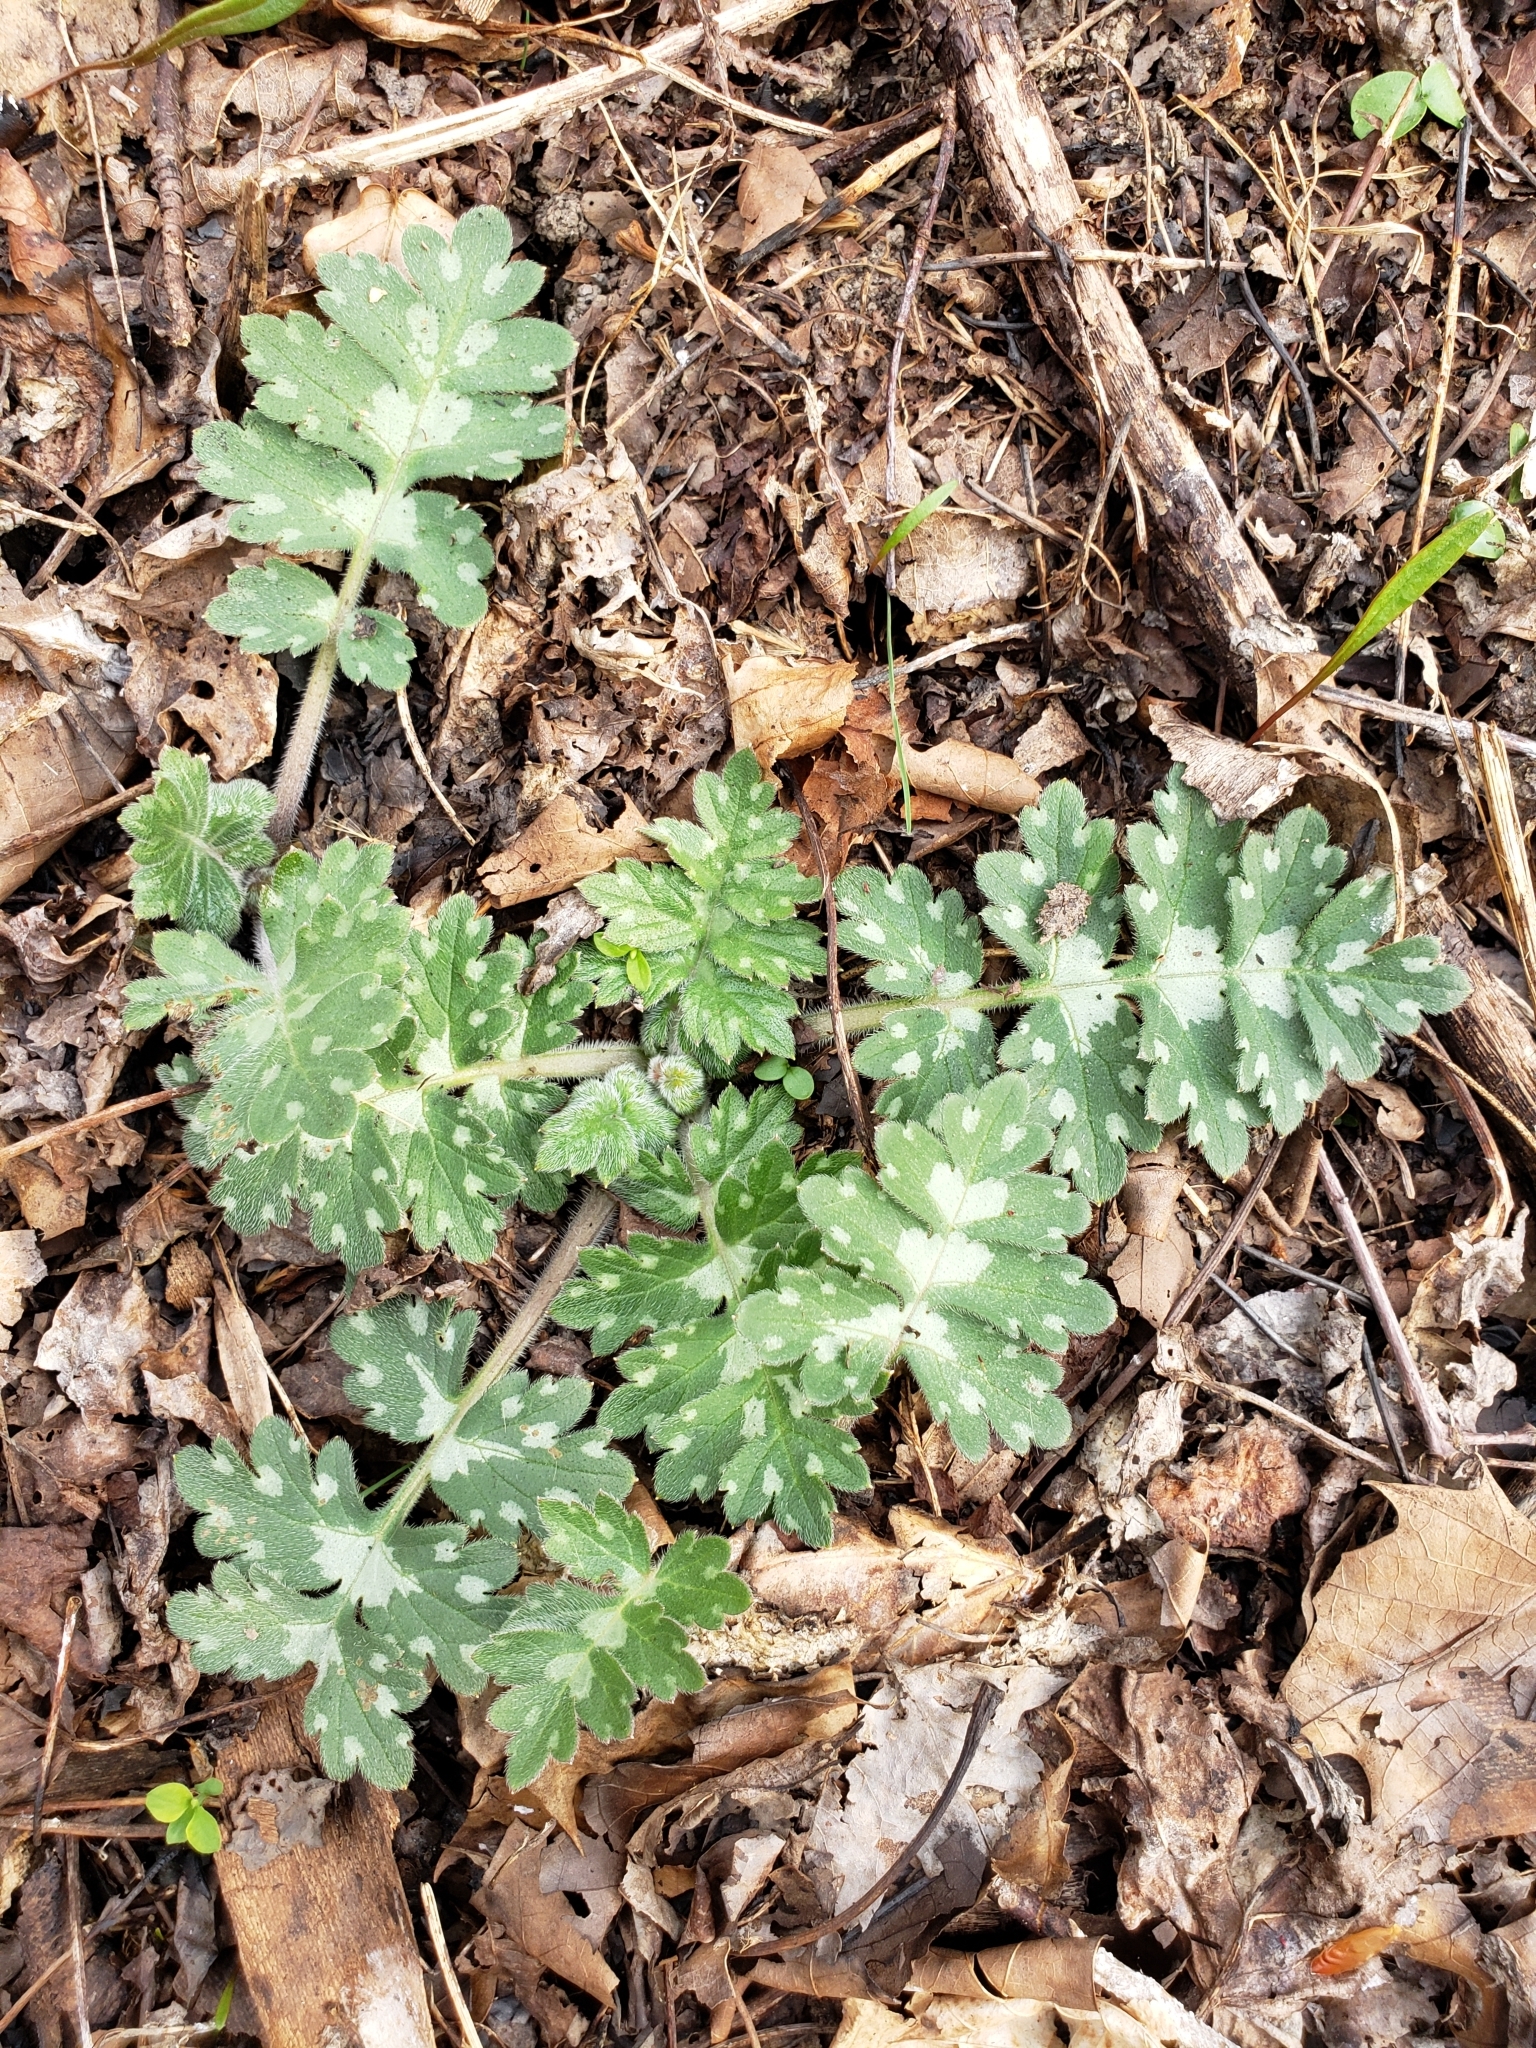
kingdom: Plantae
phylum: Tracheophyta
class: Magnoliopsida
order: Boraginales
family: Hydrophyllaceae
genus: Hydrophyllum
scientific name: Hydrophyllum macrophyllum
